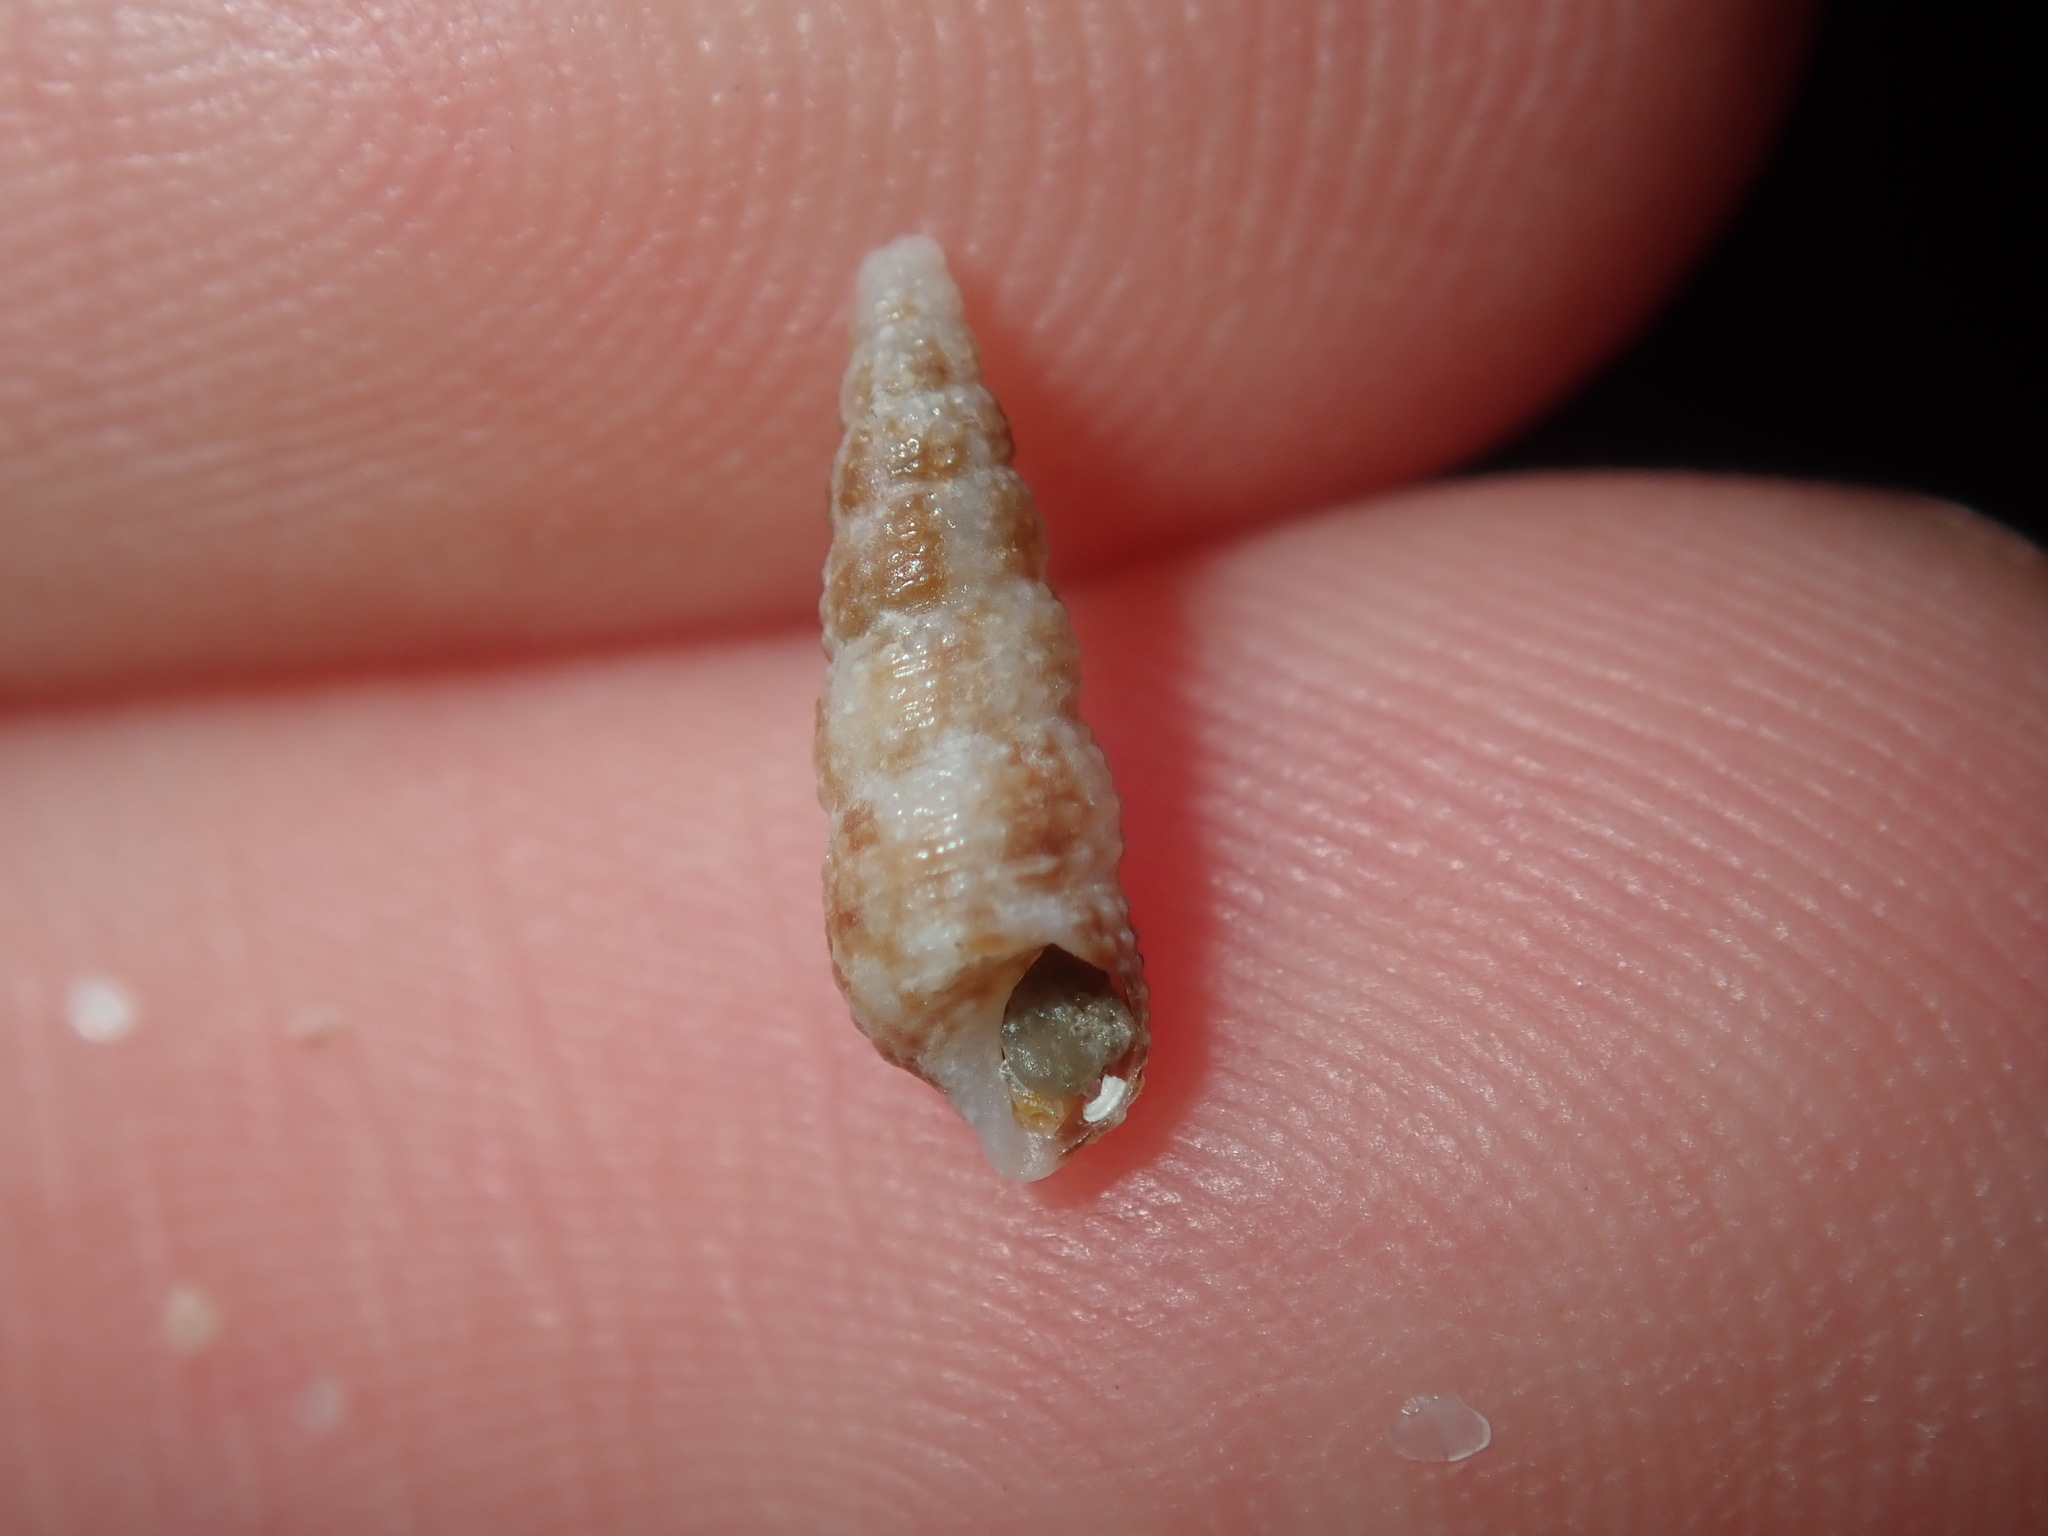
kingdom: Animalia
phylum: Mollusca
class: Gastropoda
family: Cerithiidae
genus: Cacozeliana
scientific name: Cacozeliana granarium
